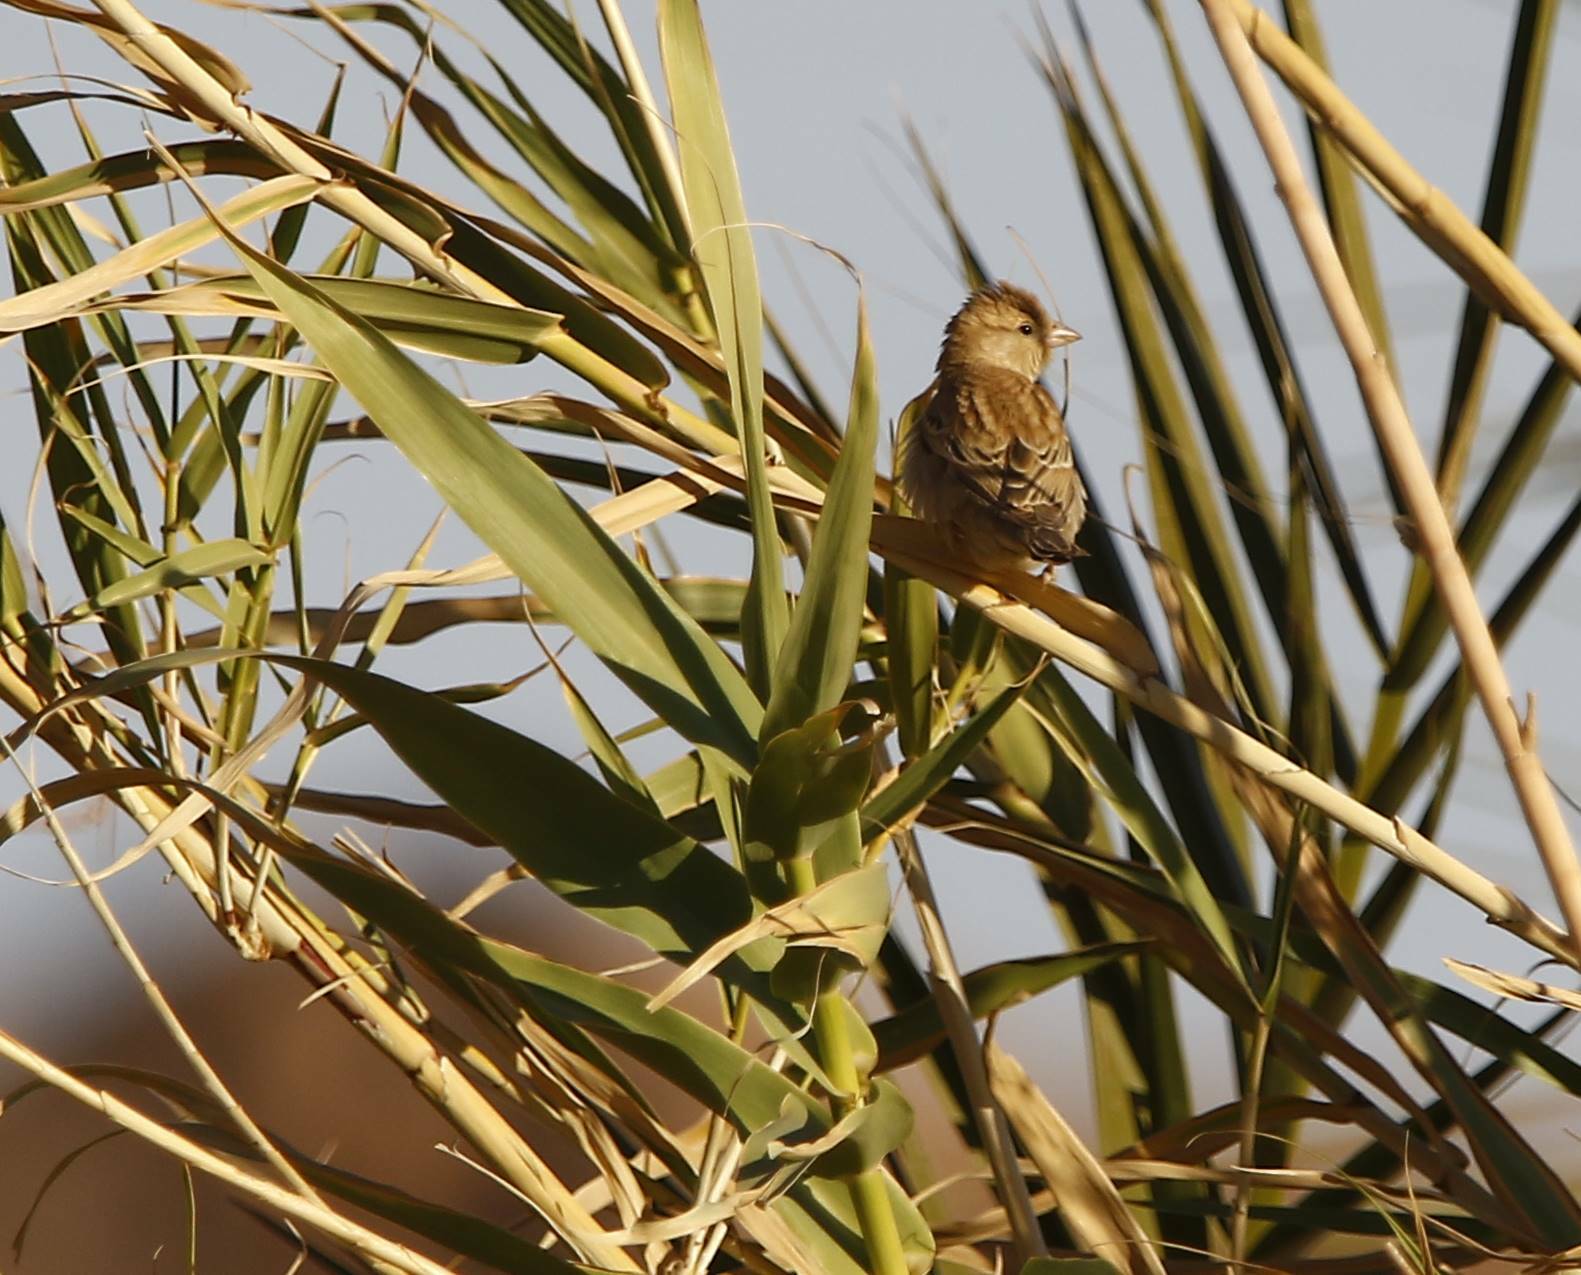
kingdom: Animalia
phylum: Chordata
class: Aves
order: Passeriformes
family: Passeridae
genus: Passer
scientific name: Passer luteus
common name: Sudan golden sparrow
